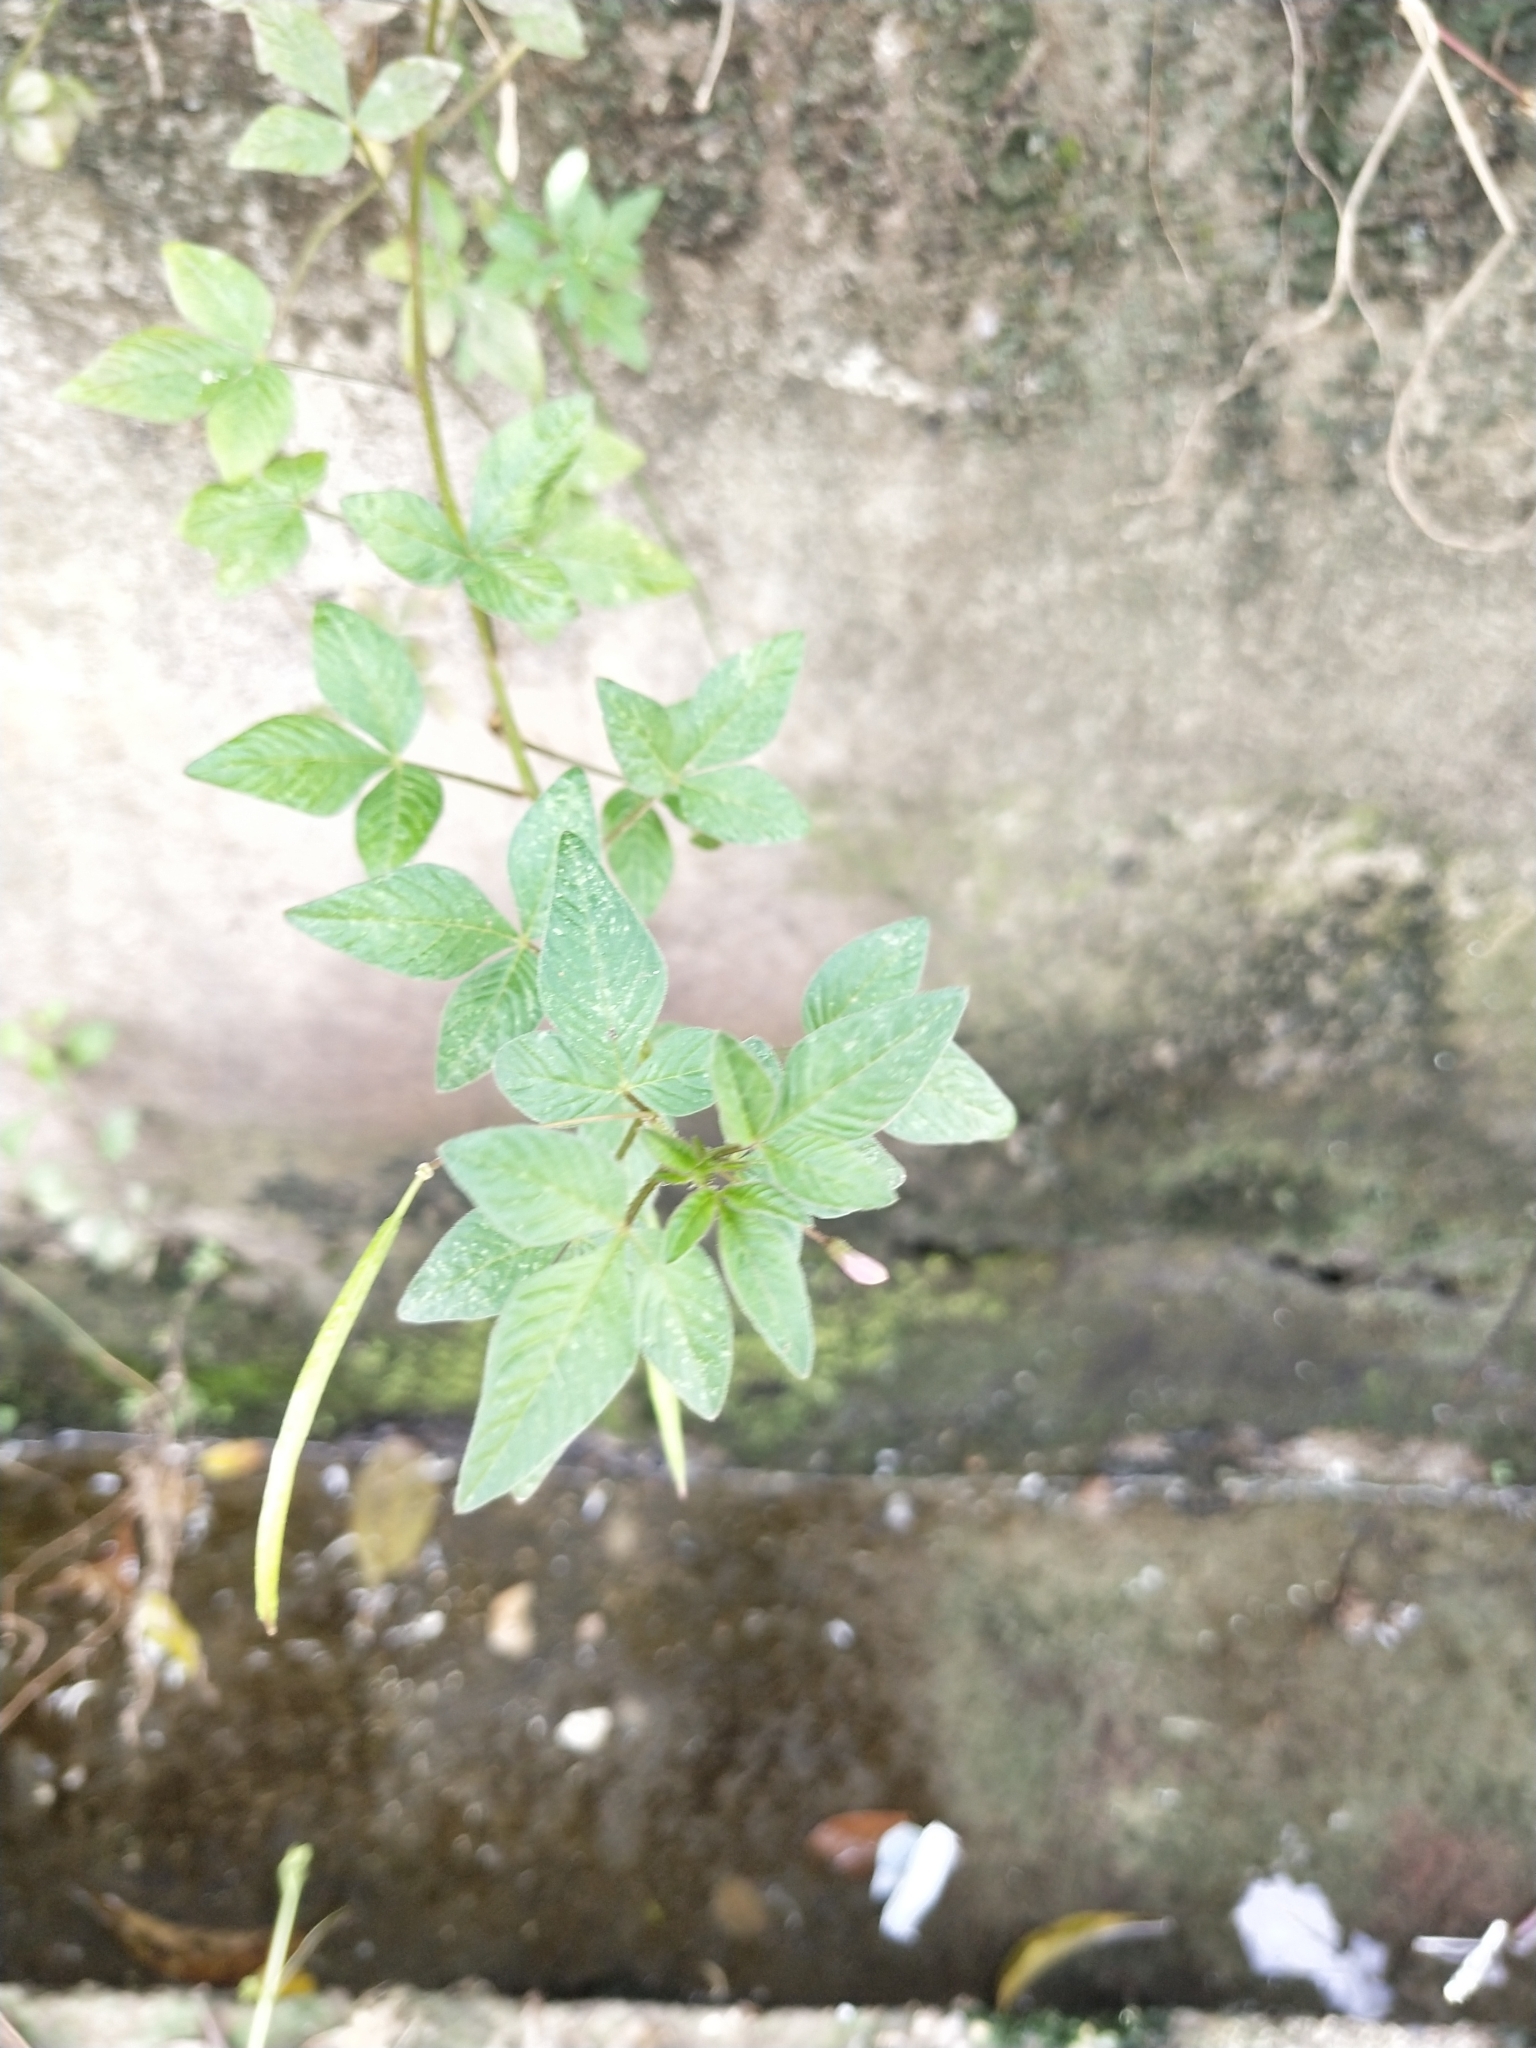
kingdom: Plantae
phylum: Tracheophyta
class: Magnoliopsida
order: Brassicales
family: Cleomaceae
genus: Sieruela
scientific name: Sieruela rutidosperma
